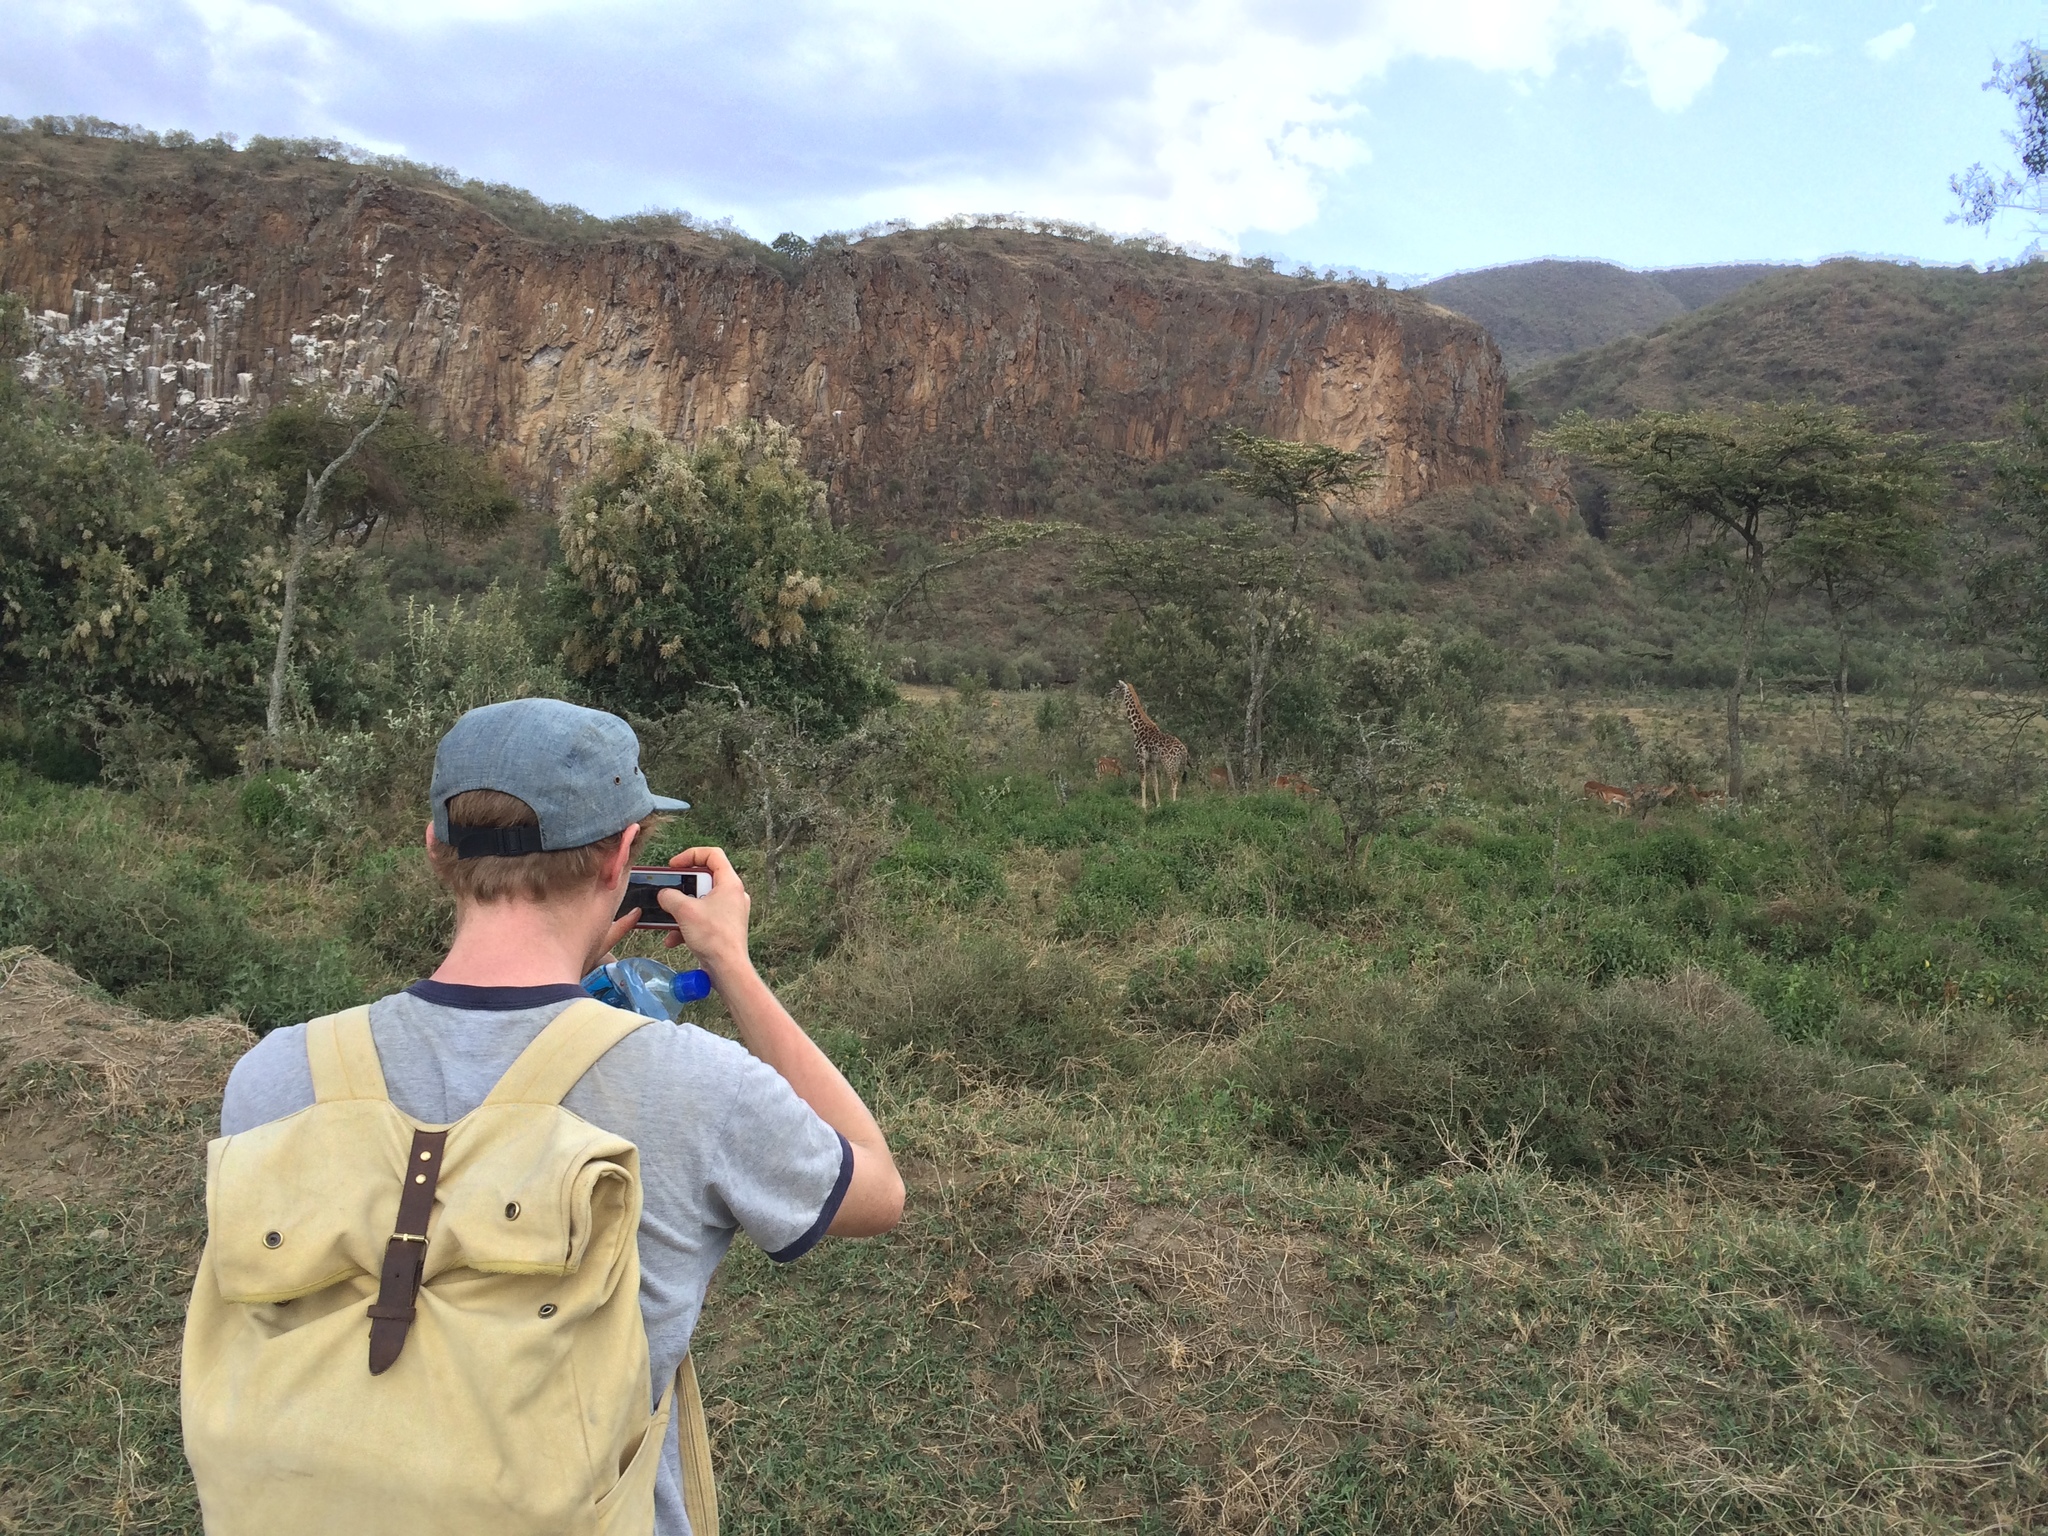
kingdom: Animalia
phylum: Chordata
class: Mammalia
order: Artiodactyla
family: Giraffidae
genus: Giraffa
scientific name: Giraffa tippelskirchi
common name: Masai giraffe
